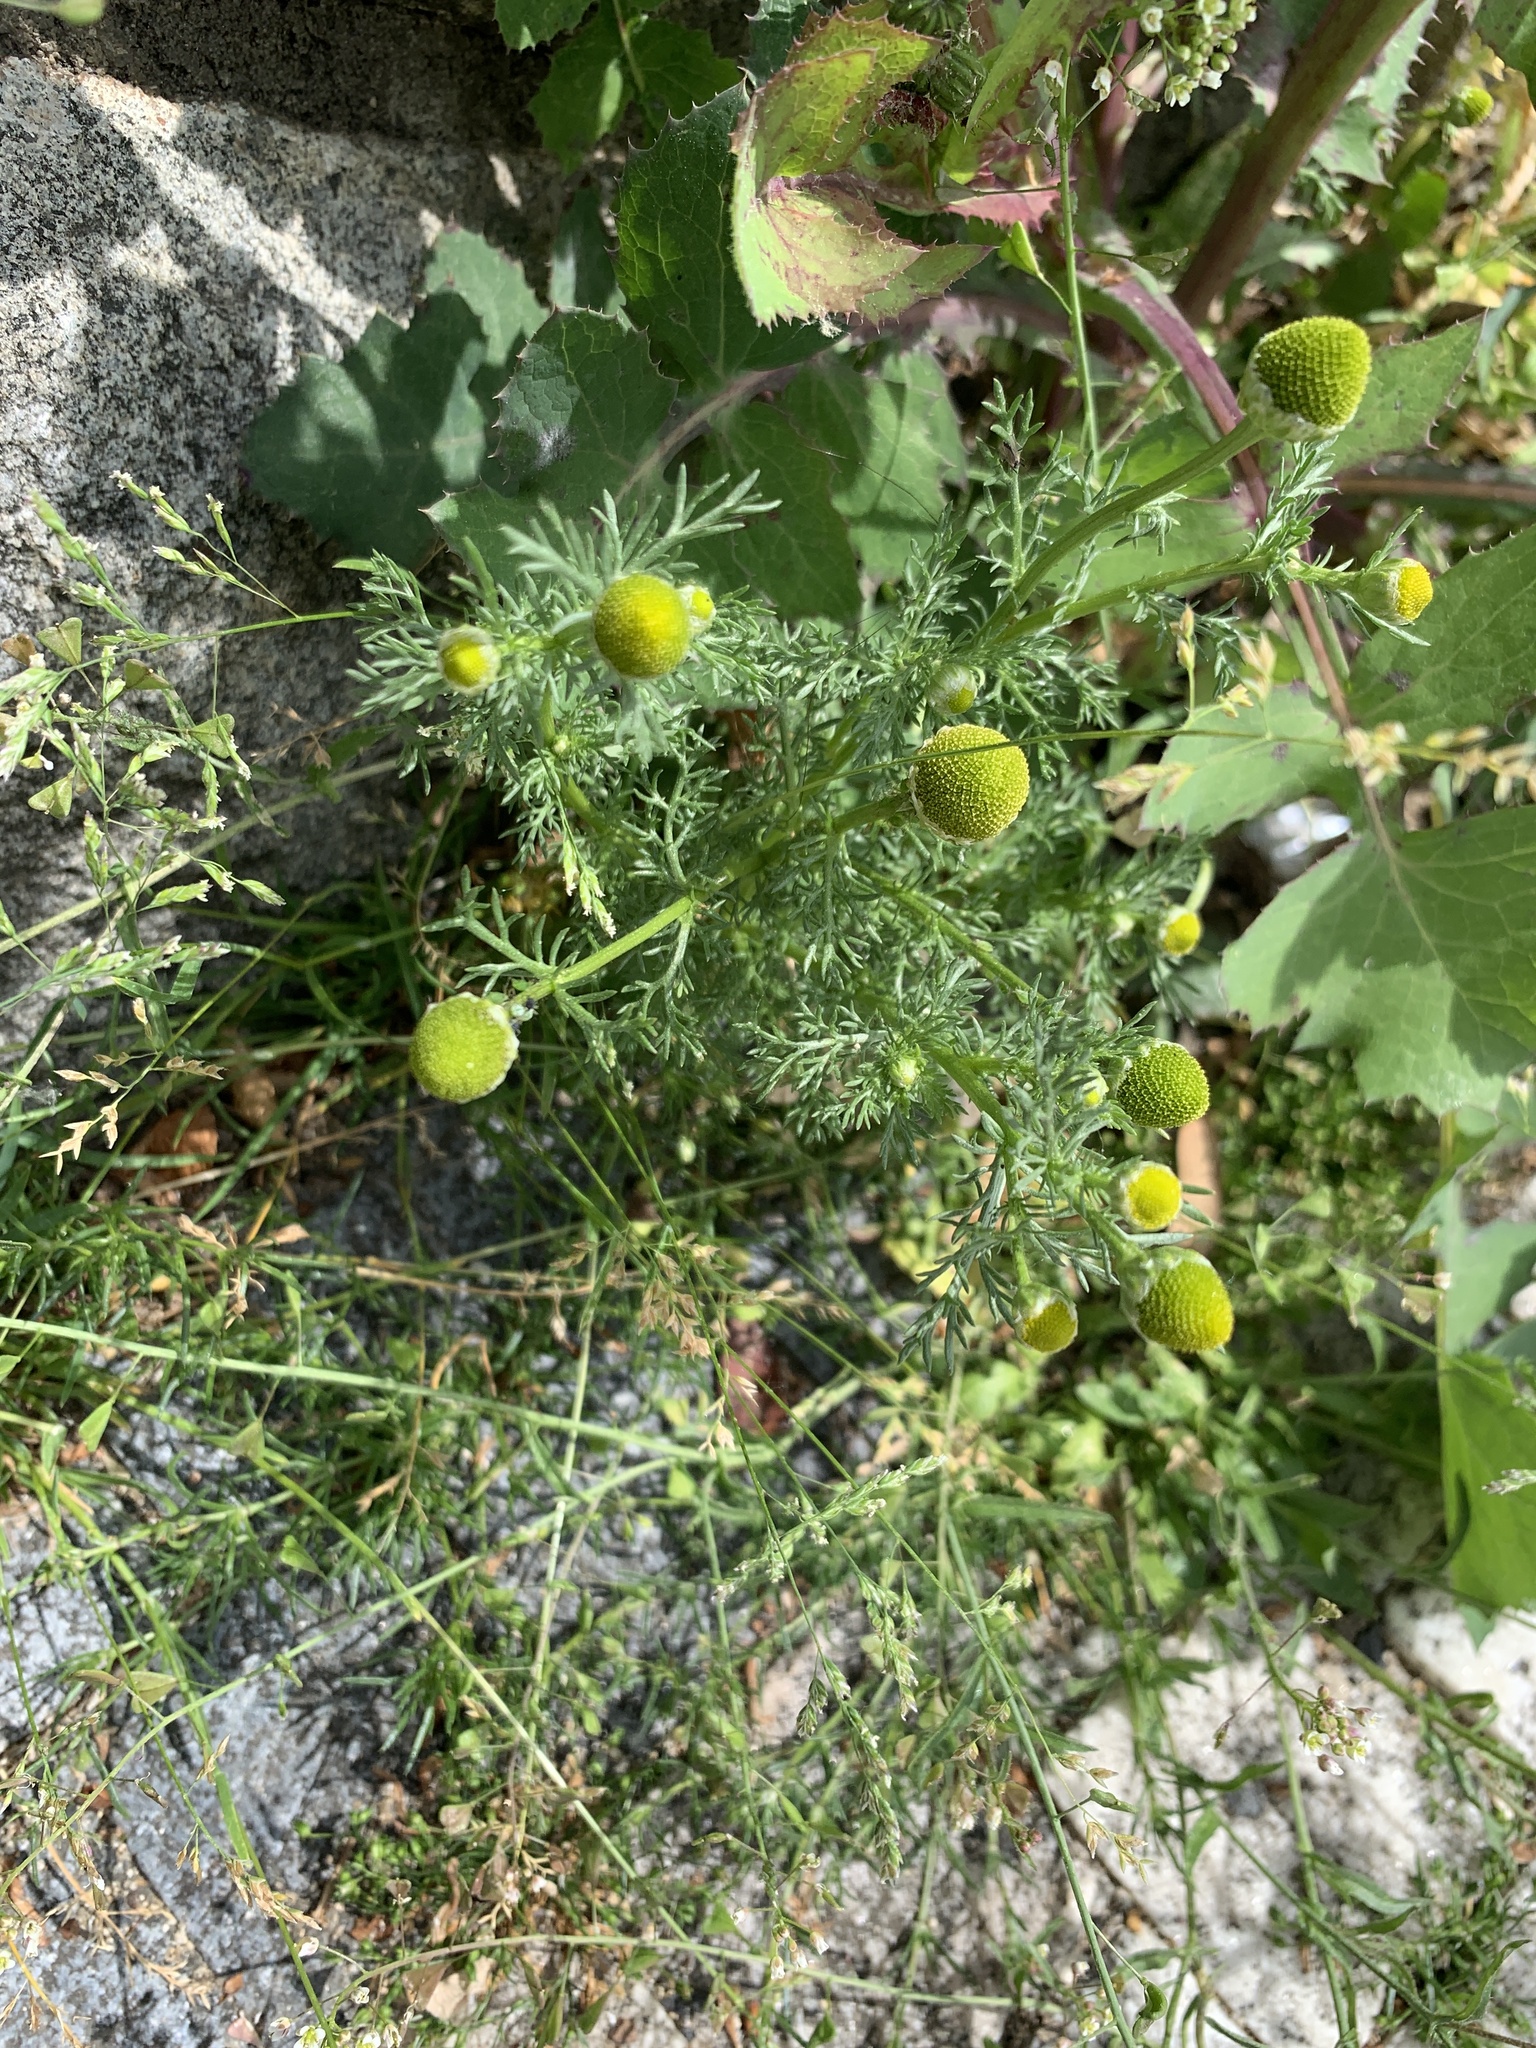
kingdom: Plantae
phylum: Tracheophyta
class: Magnoliopsida
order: Asterales
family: Asteraceae
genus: Matricaria
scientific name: Matricaria discoidea
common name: Disc mayweed
